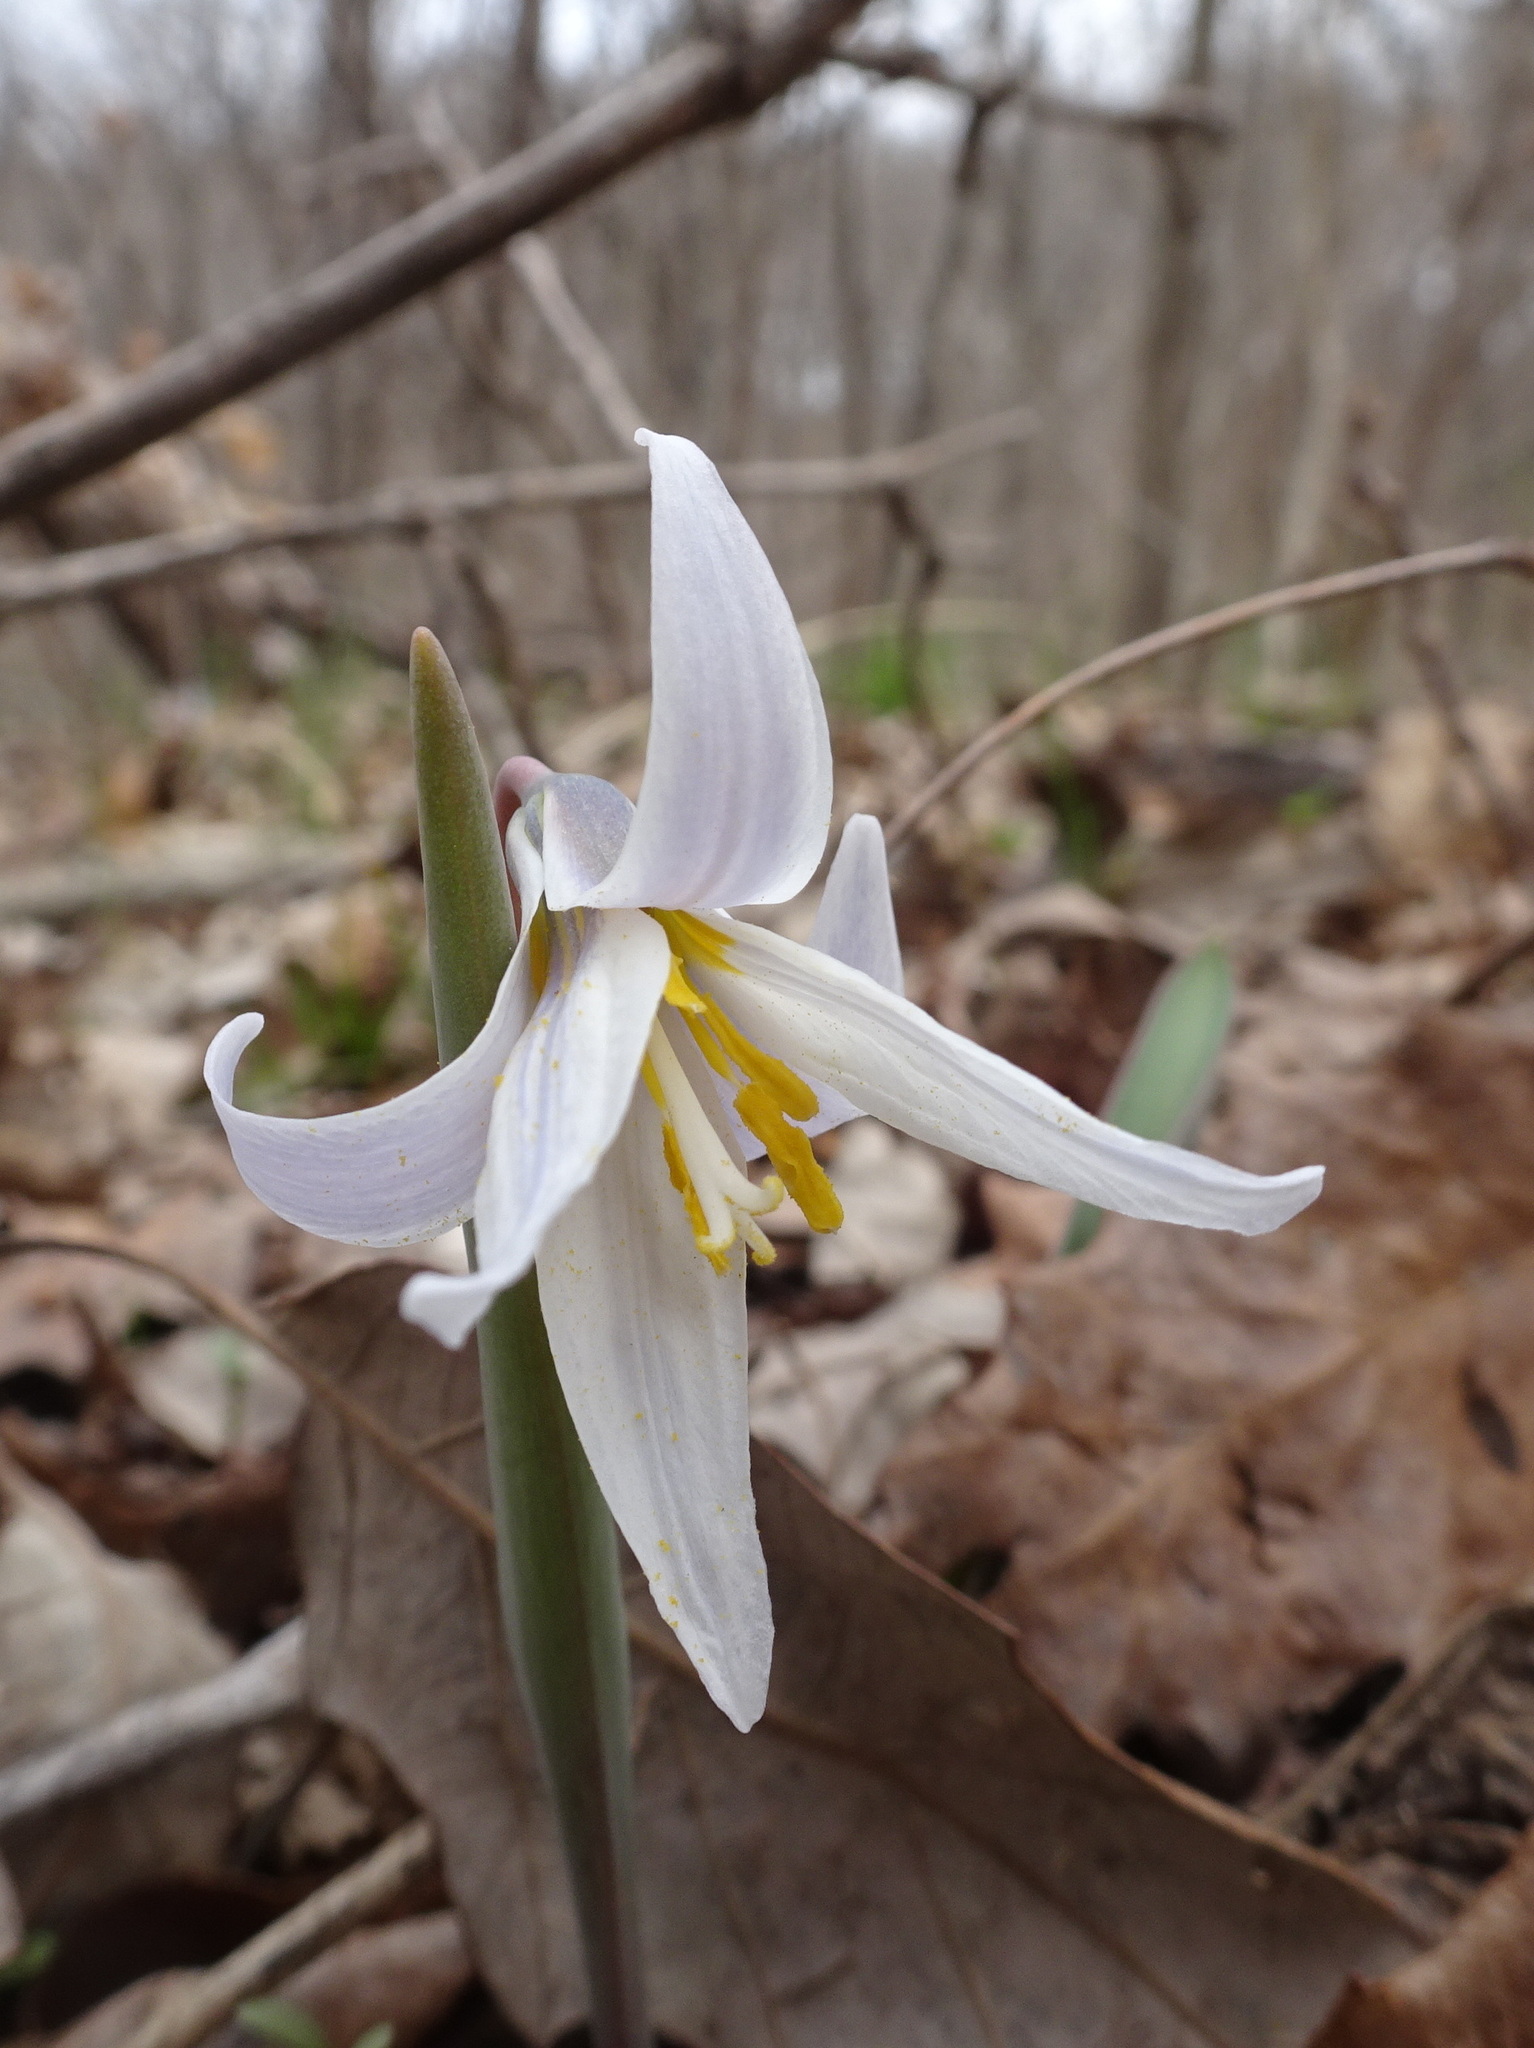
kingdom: Plantae
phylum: Tracheophyta
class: Liliopsida
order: Liliales
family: Liliaceae
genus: Erythronium
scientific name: Erythronium mesochoreum
